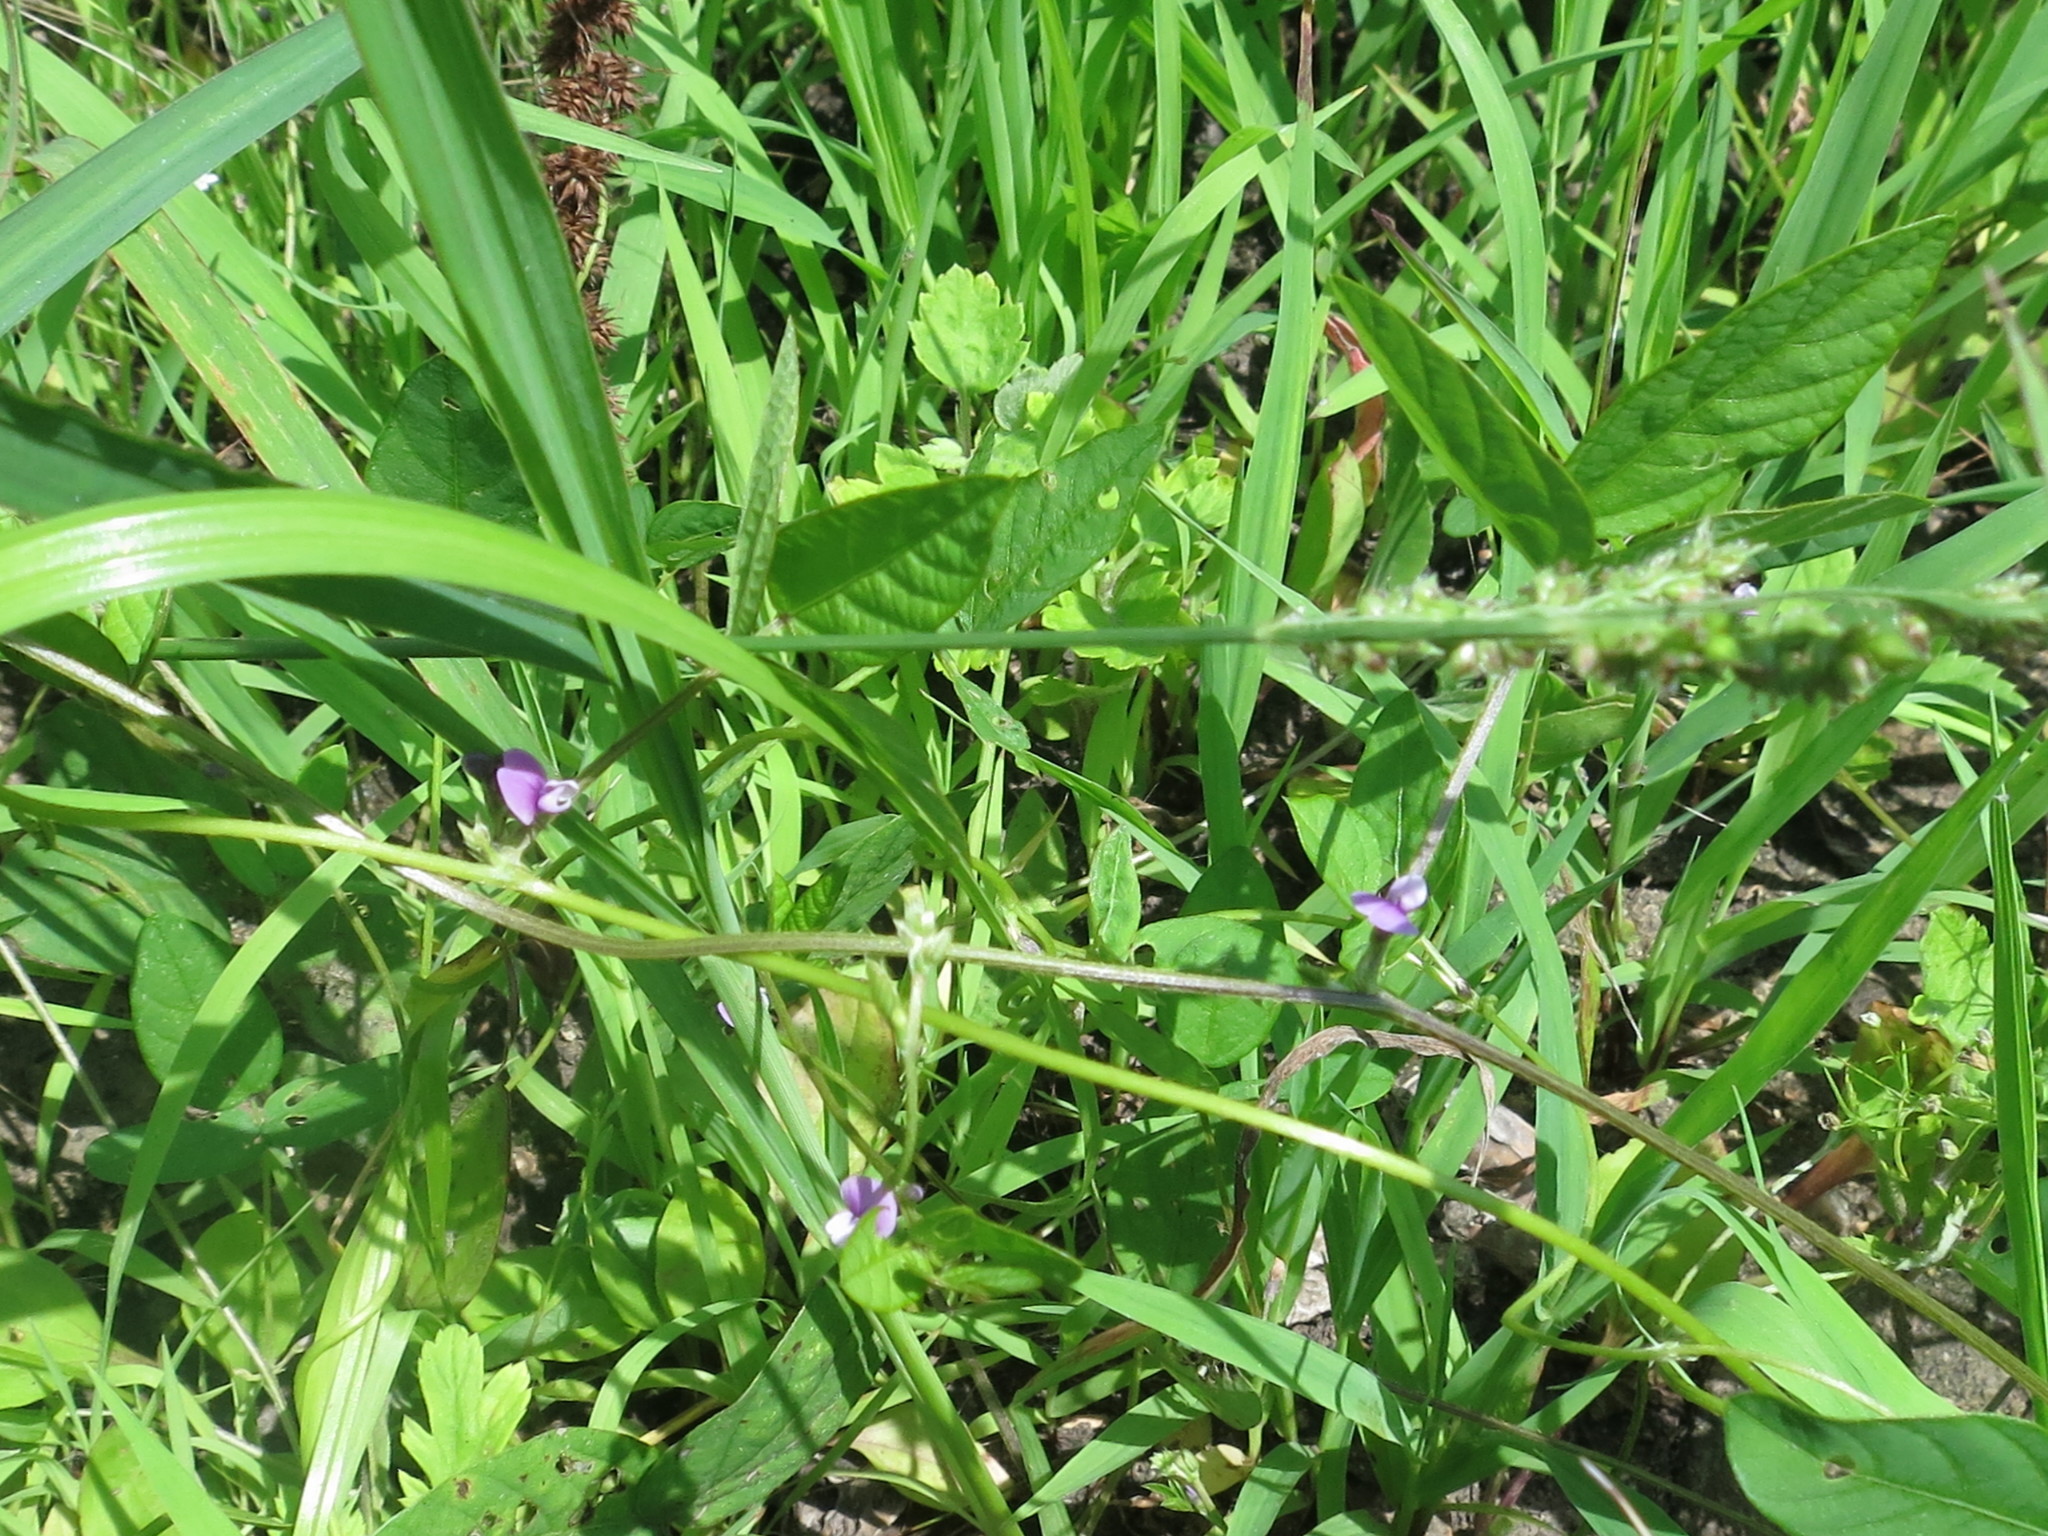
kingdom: Plantae
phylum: Tracheophyta
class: Magnoliopsida
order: Fabales
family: Fabaceae
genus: Glycine
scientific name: Glycine max
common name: Soya-bean
